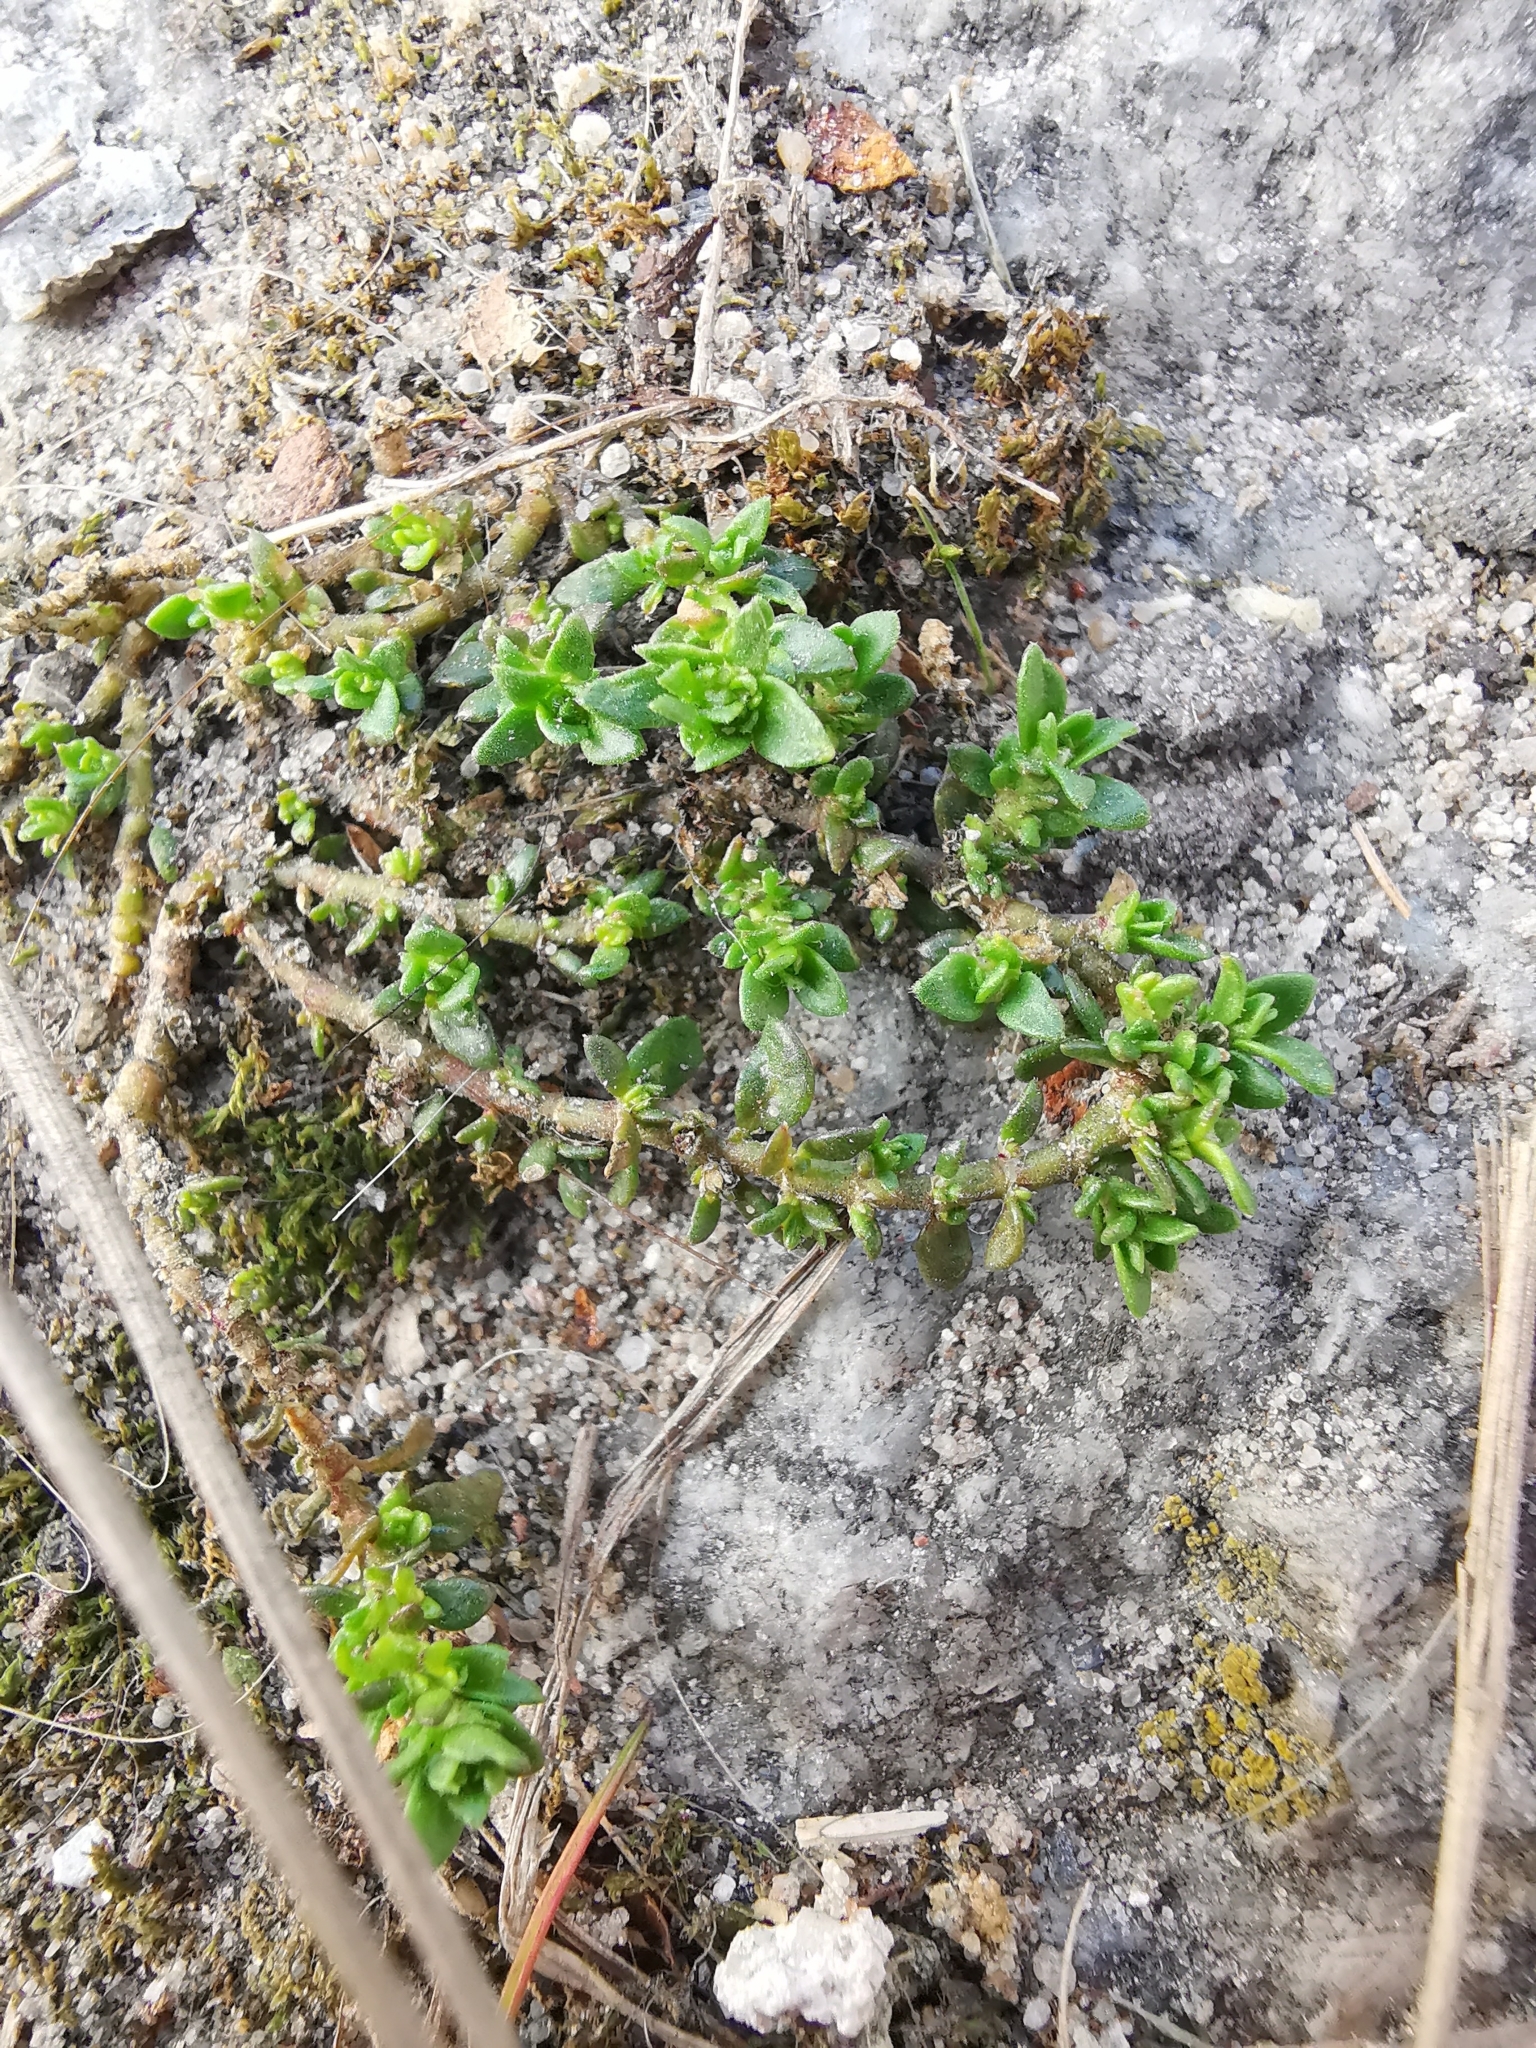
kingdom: Plantae
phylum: Tracheophyta
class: Magnoliopsida
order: Caryophyllales
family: Caryophyllaceae
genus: Herniaria
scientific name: Herniaria glabra
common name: Smooth rupturewort
